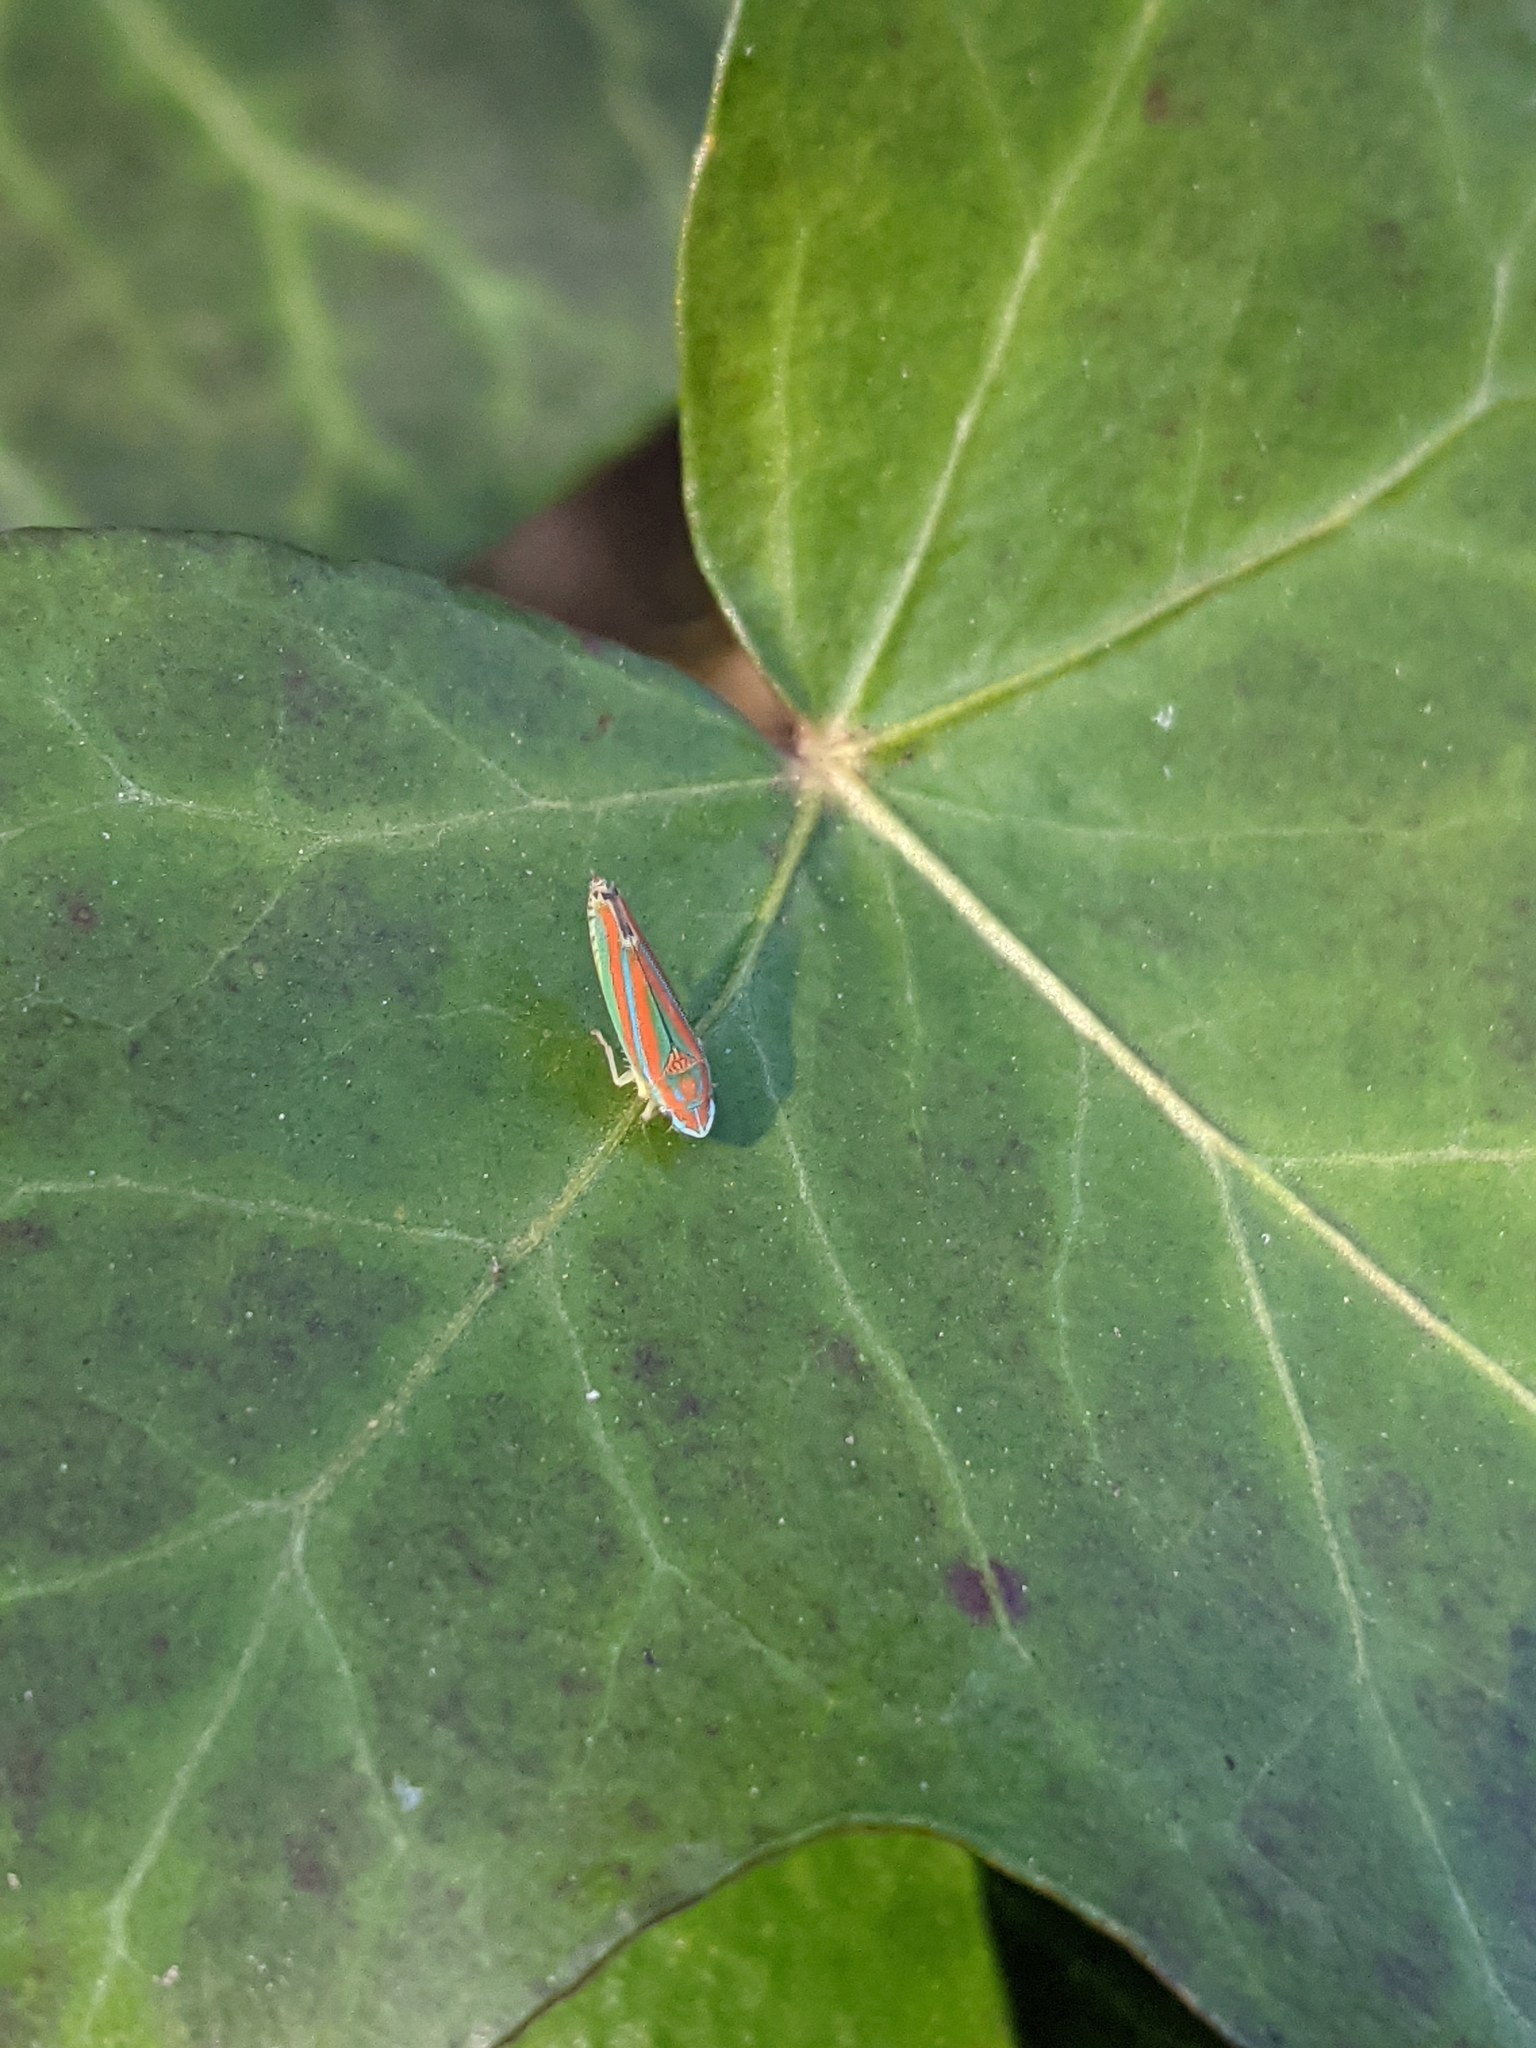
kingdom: Animalia
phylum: Arthropoda
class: Insecta
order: Hemiptera
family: Cicadellidae
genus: Graphocephala
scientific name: Graphocephala versuta
